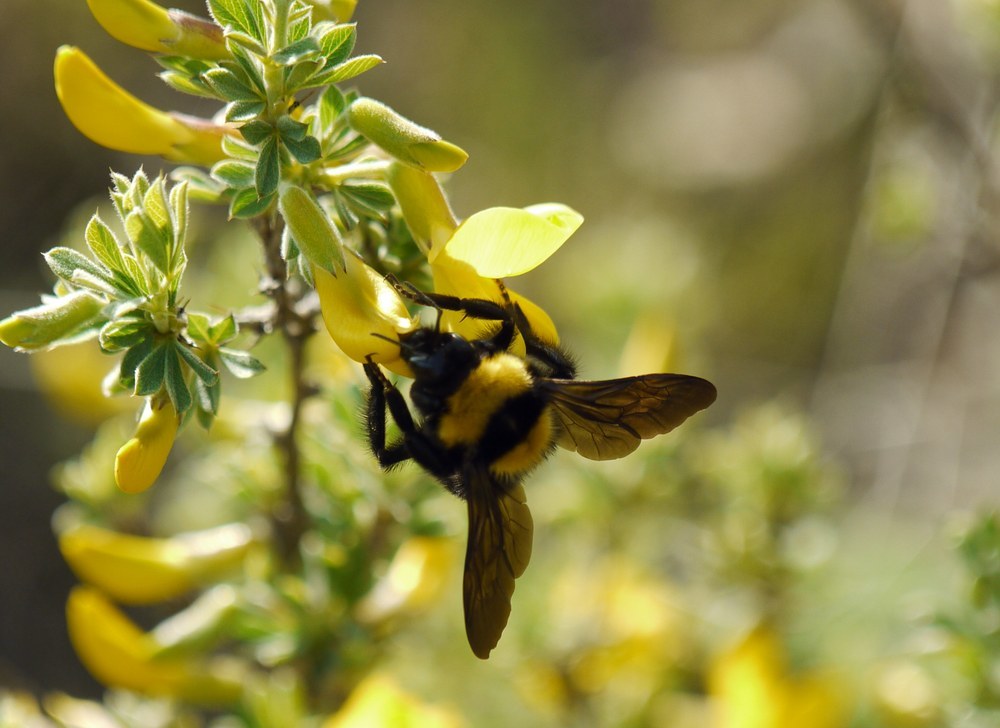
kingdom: Animalia
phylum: Arthropoda
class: Insecta
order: Hymenoptera
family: Apidae
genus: Bombus
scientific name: Bombus argillaceus
